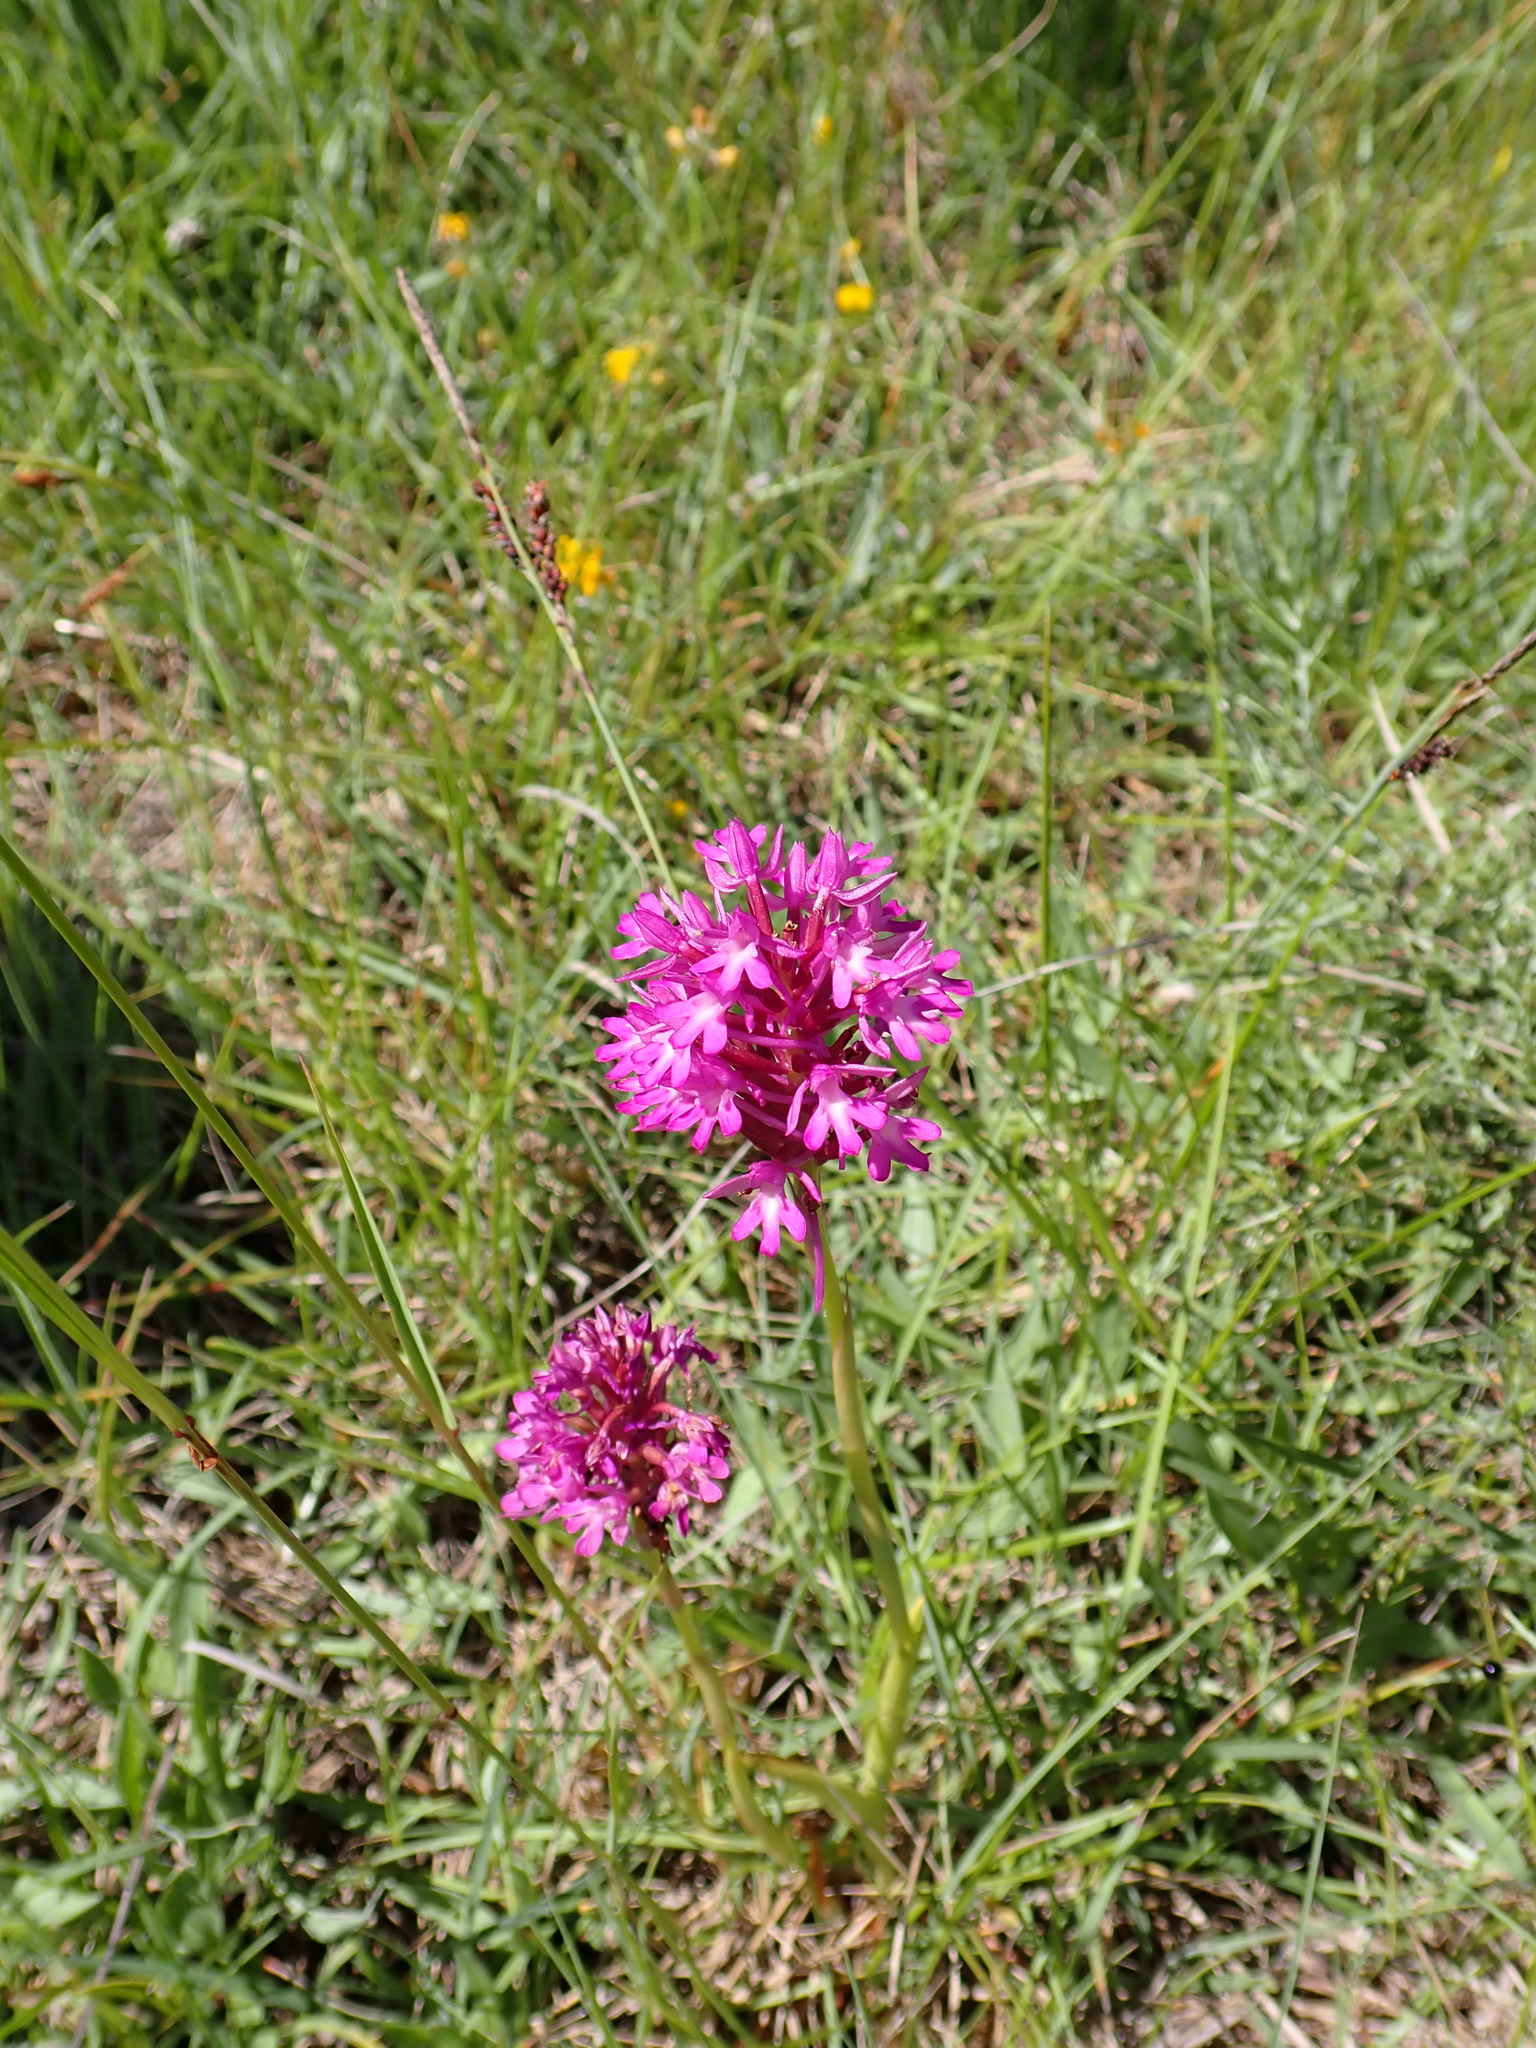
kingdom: Plantae
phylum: Tracheophyta
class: Liliopsida
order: Asparagales
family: Orchidaceae
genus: Anacamptis
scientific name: Anacamptis pyramidalis
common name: Pyramidal orchid
